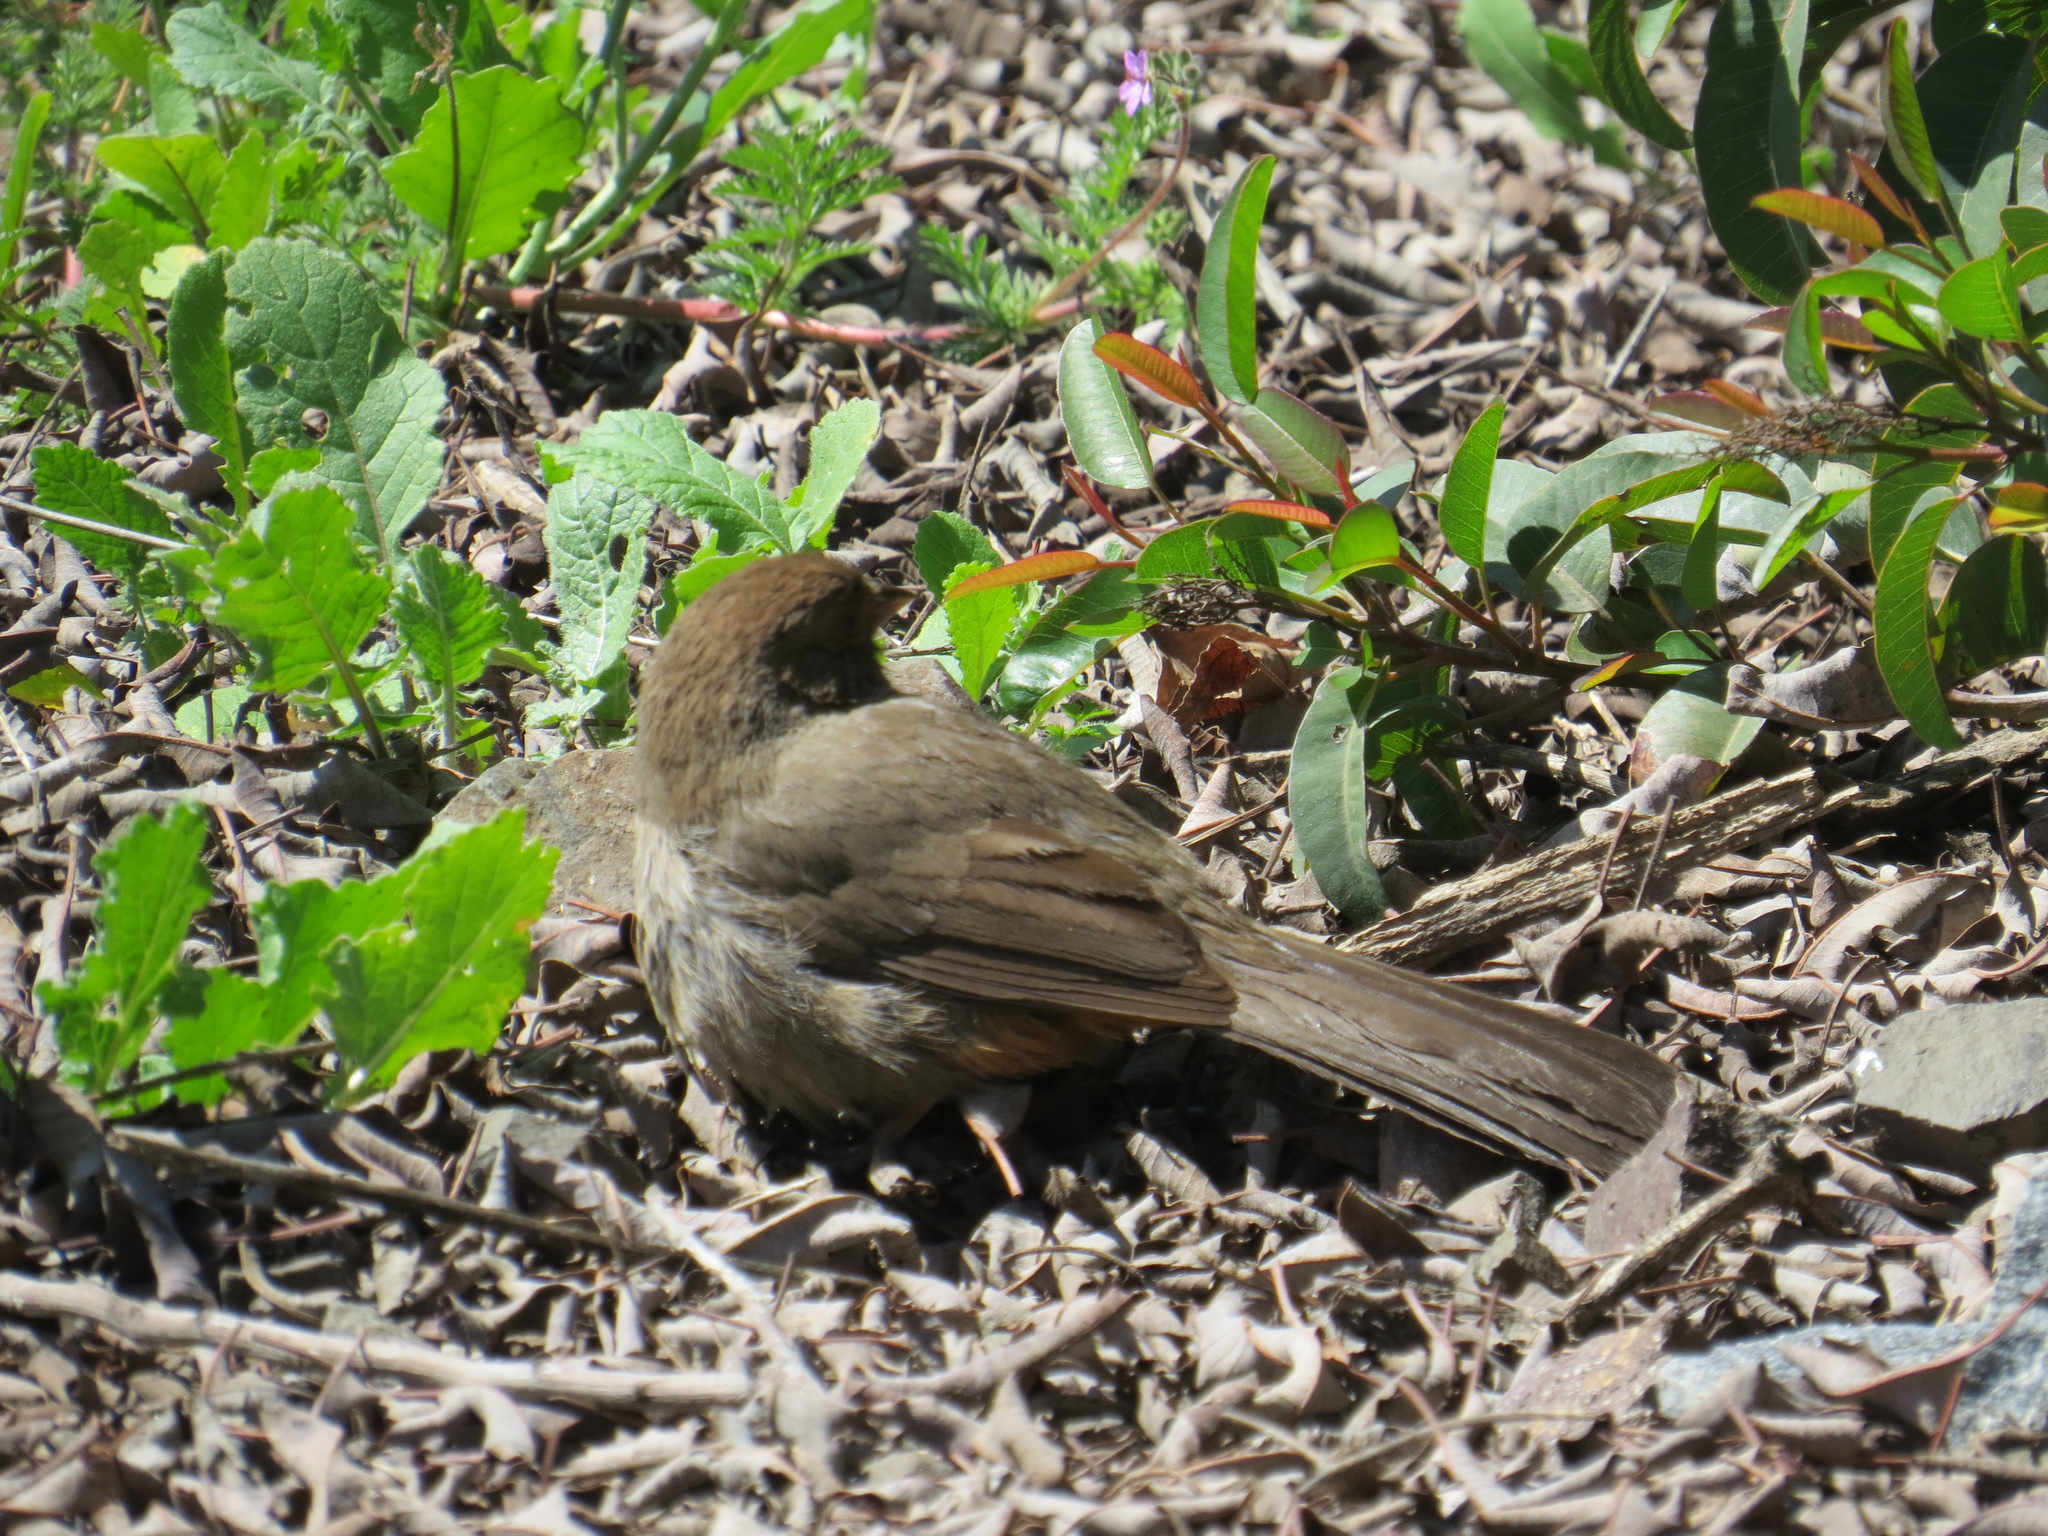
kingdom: Animalia
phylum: Chordata
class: Aves
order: Passeriformes
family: Passerellidae
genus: Melozone
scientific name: Melozone crissalis
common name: California towhee
